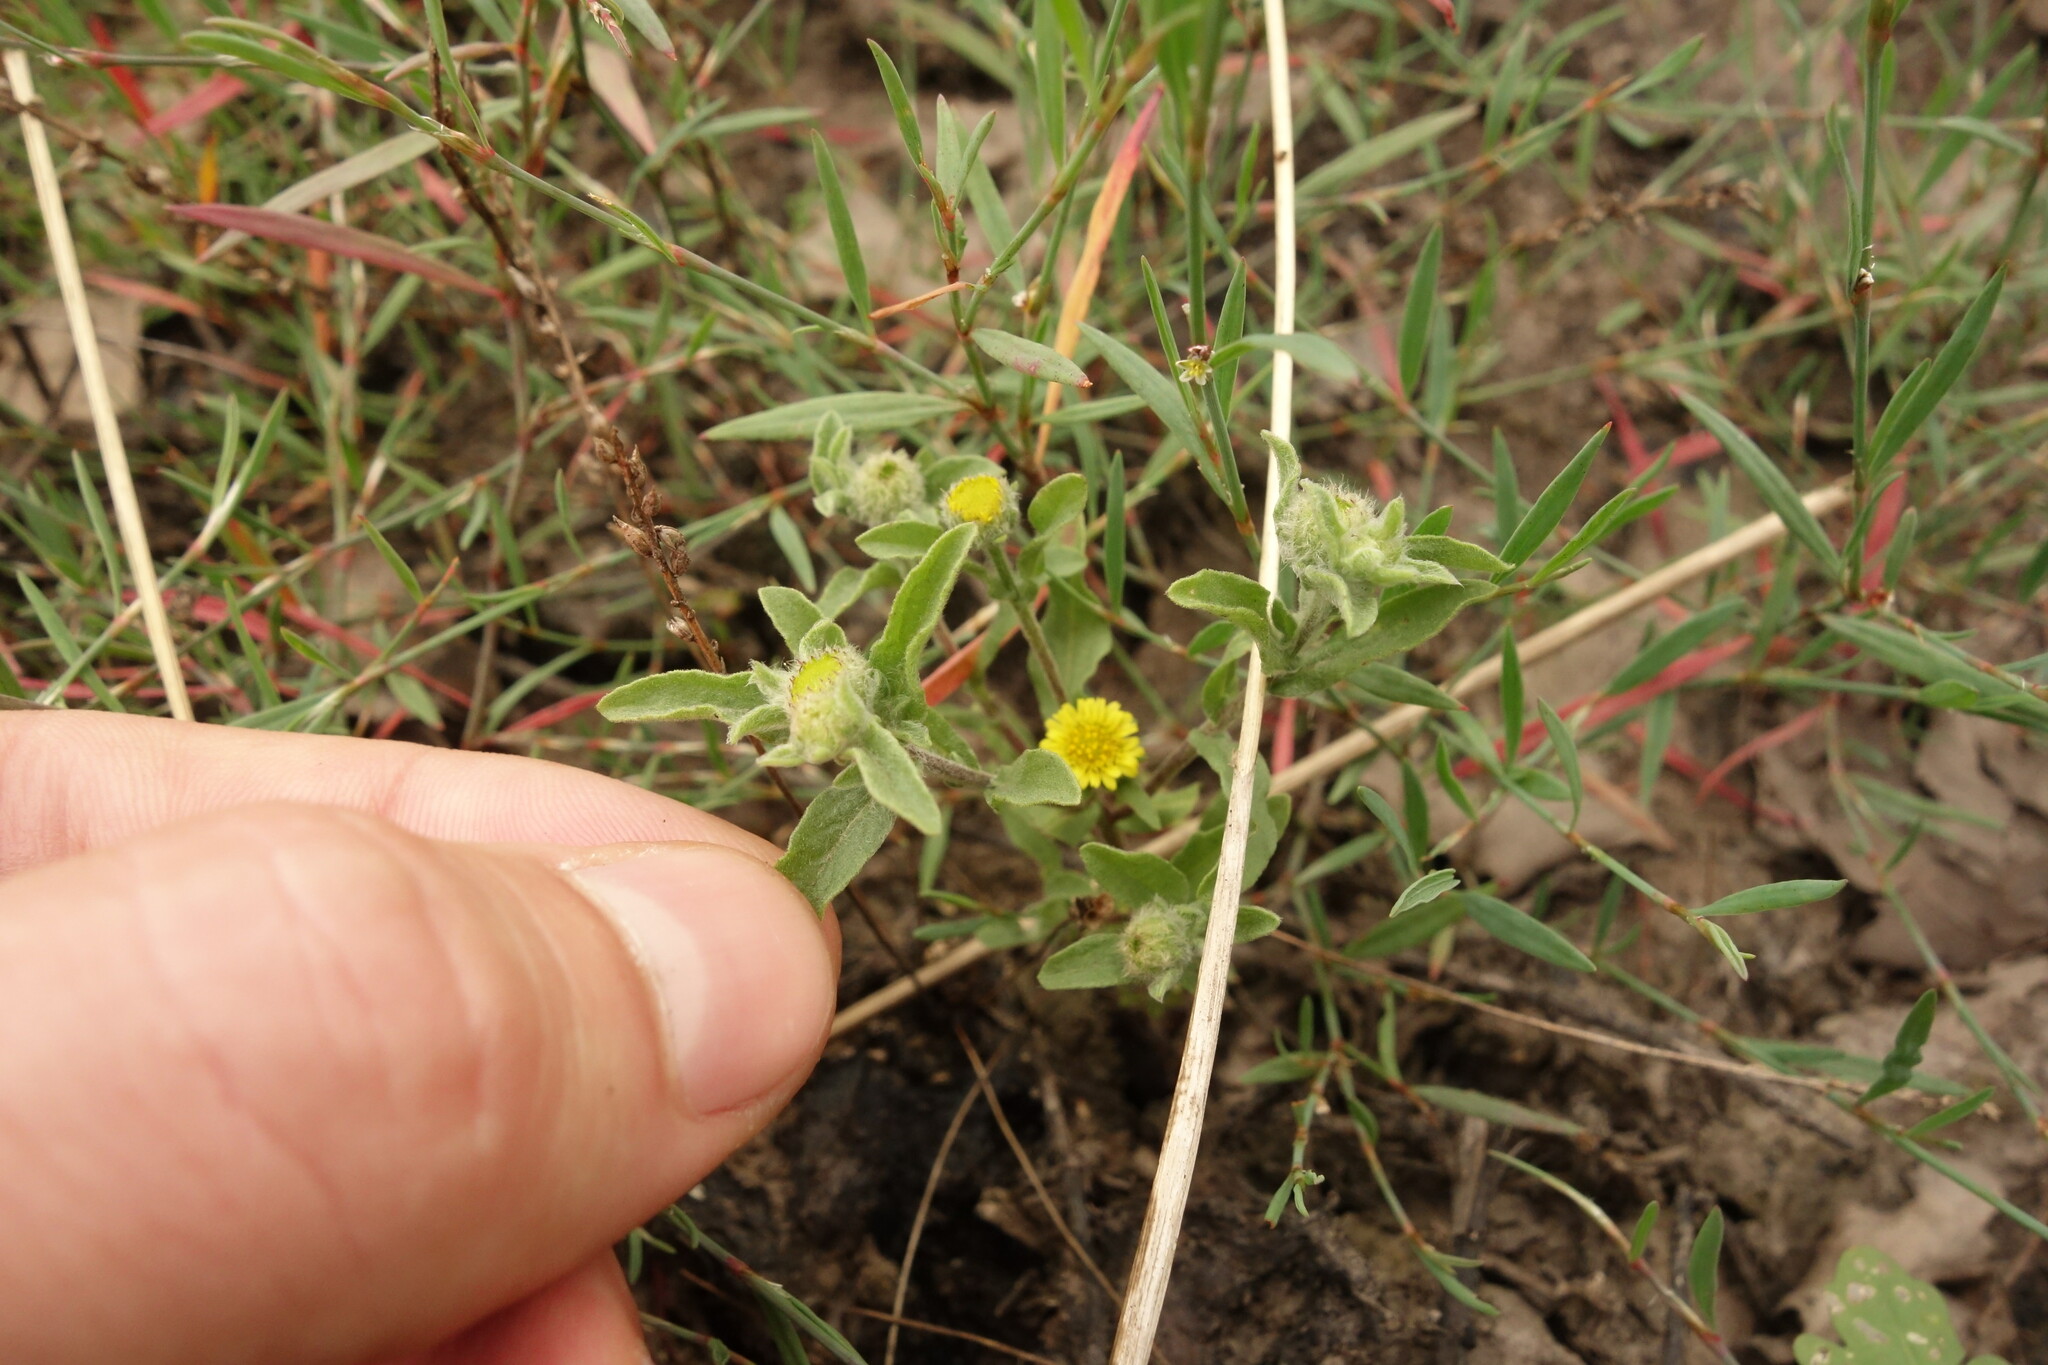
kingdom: Plantae
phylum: Tracheophyta
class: Magnoliopsida
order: Asterales
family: Asteraceae
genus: Pulicaria
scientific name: Pulicaria vulgaris
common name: Small fleabane
